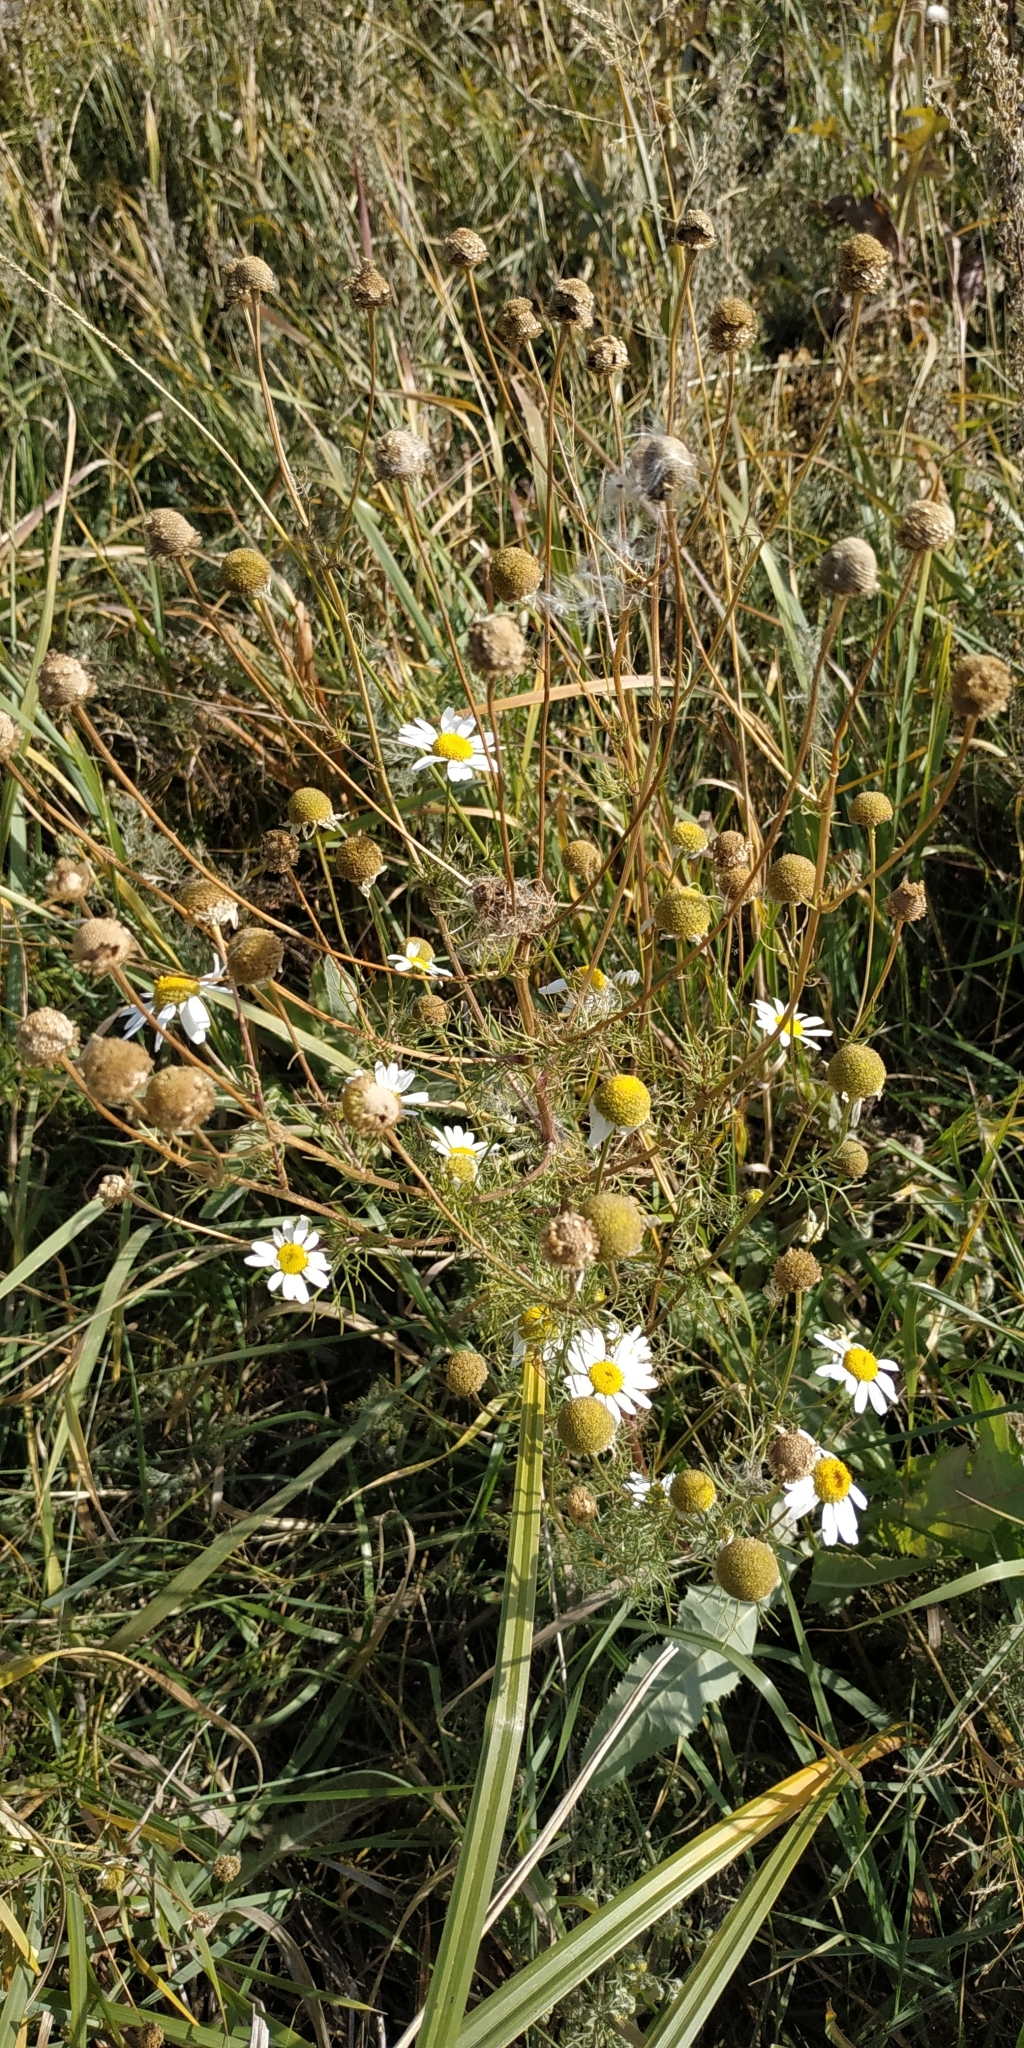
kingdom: Plantae
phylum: Tracheophyta
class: Magnoliopsida
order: Asterales
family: Asteraceae
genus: Tripleurospermum
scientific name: Tripleurospermum inodorum
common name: Scentless mayweed
